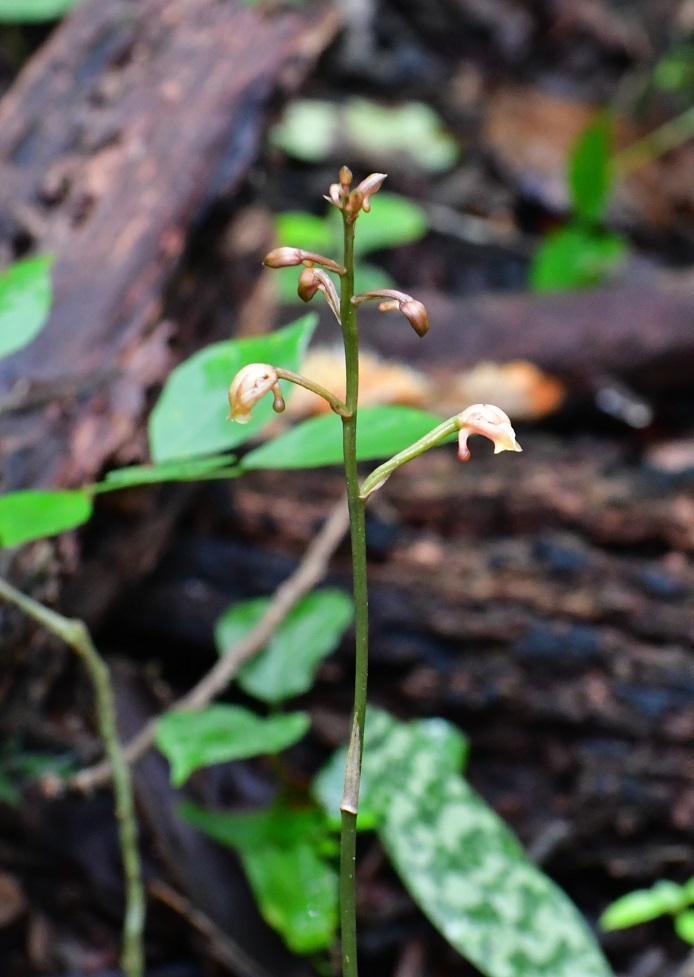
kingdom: Plantae
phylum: Tracheophyta
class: Liliopsida
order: Asparagales
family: Orchidaceae
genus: Eulophia
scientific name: Eulophia maculata
